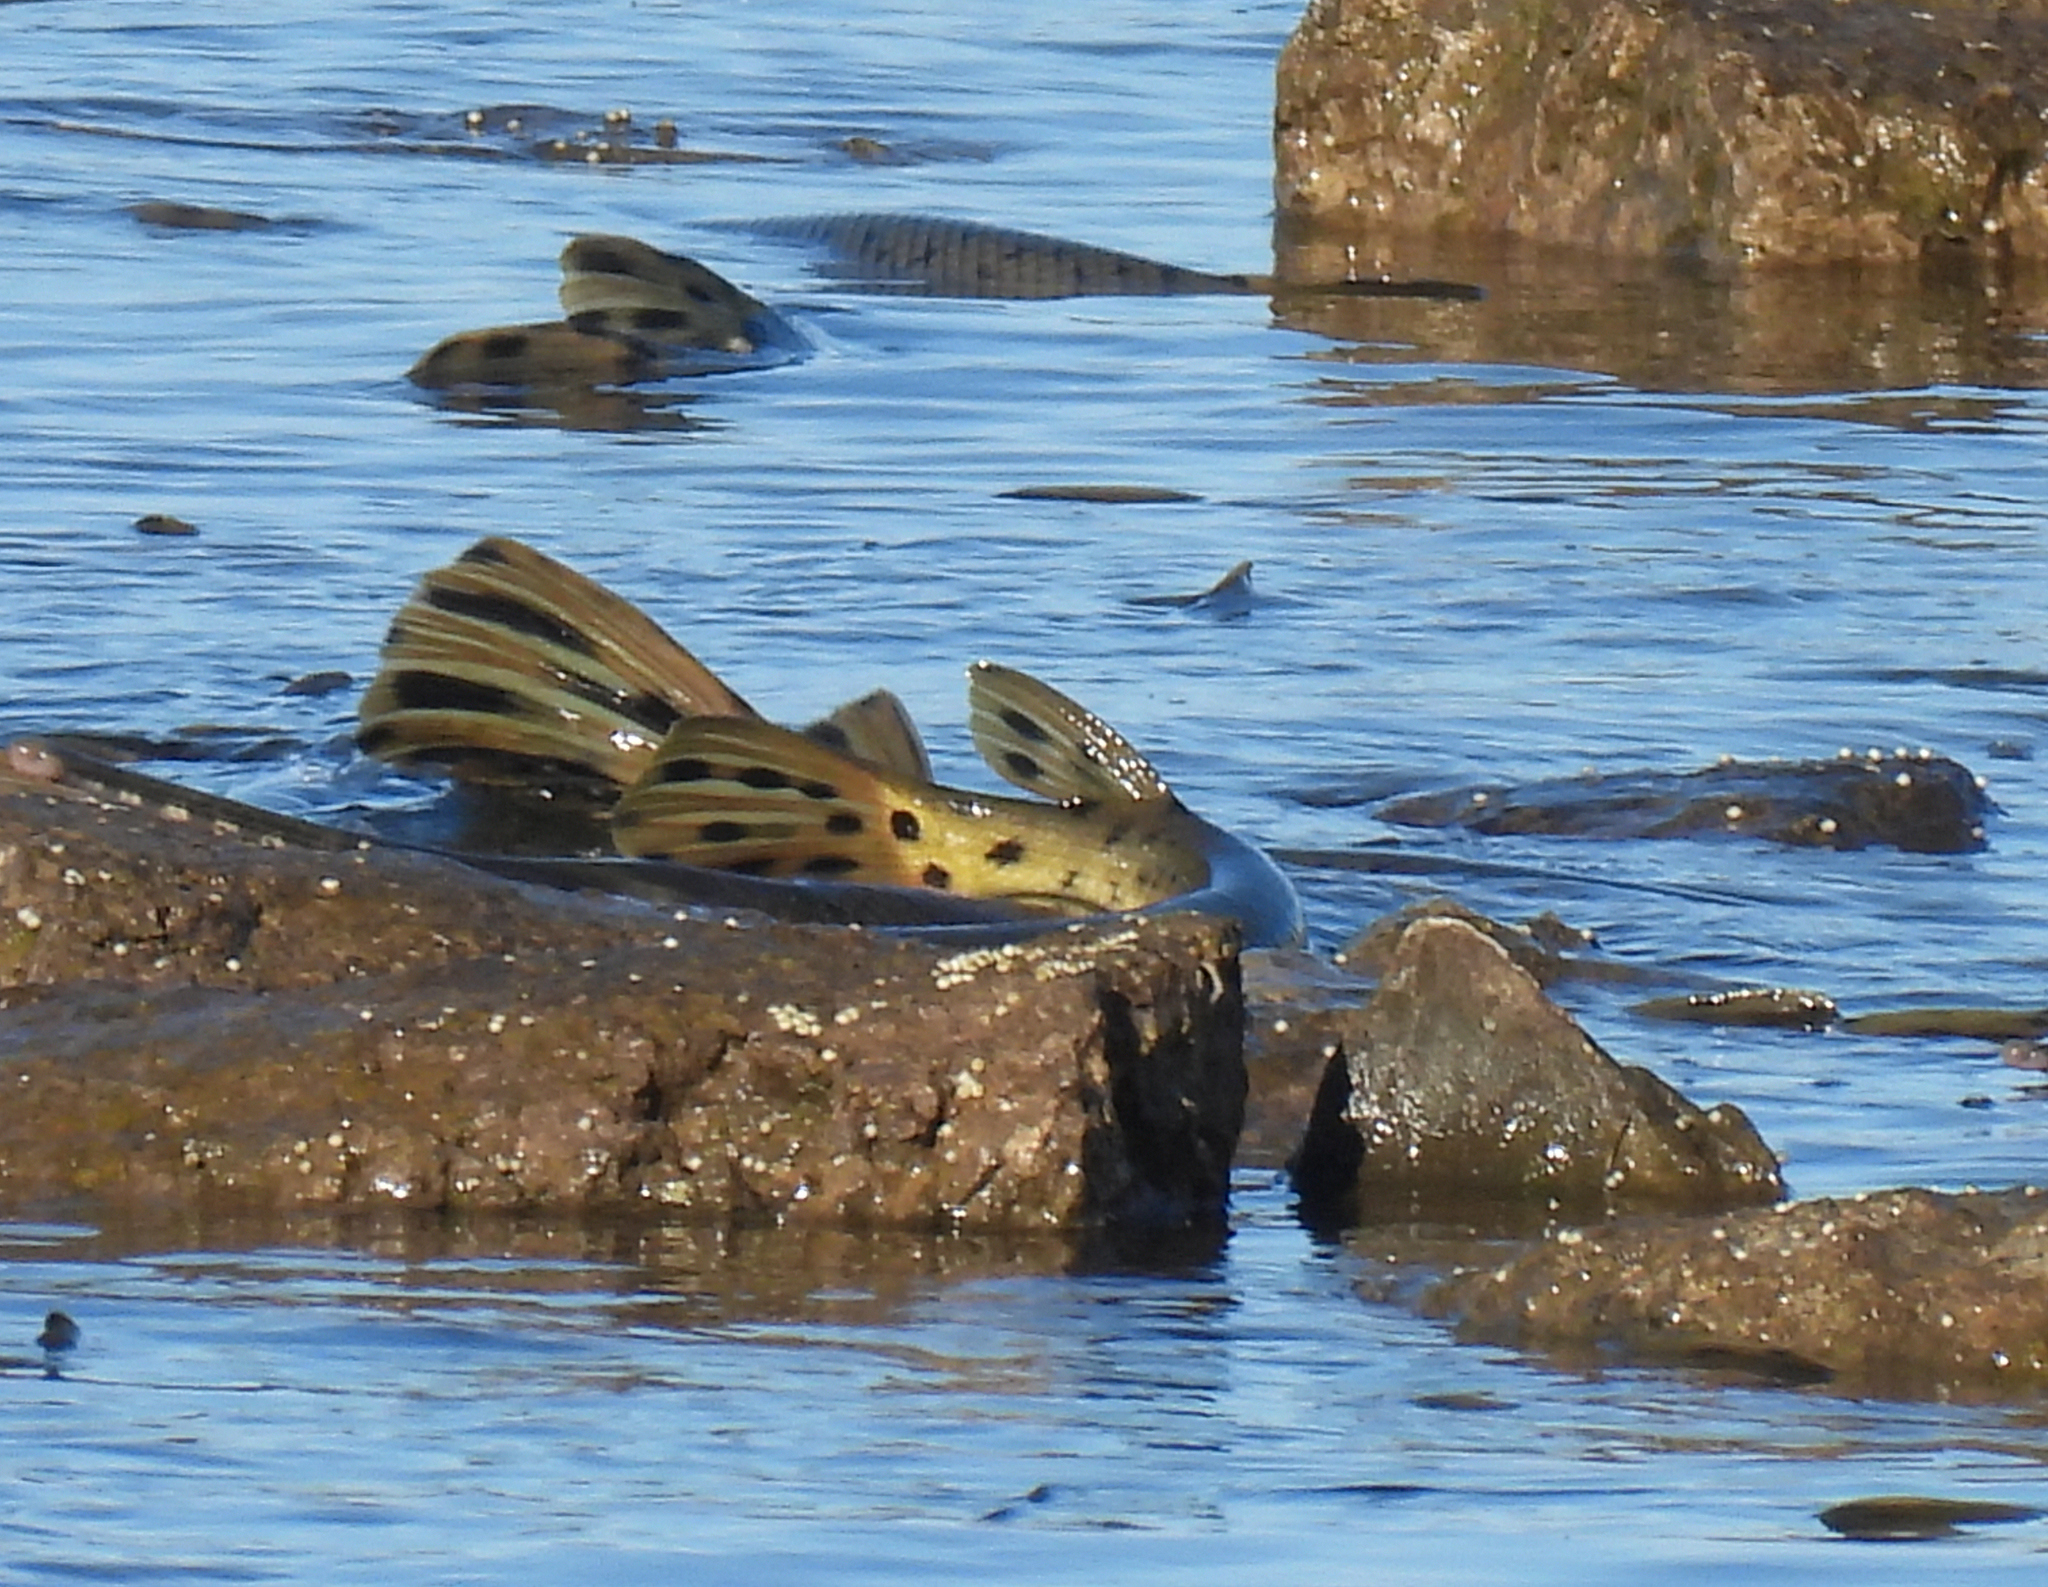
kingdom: Animalia
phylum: Chordata
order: Lepisosteiformes
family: Lepisosteidae
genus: Lepisosteus
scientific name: Lepisosteus osseus
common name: Longnose gar
